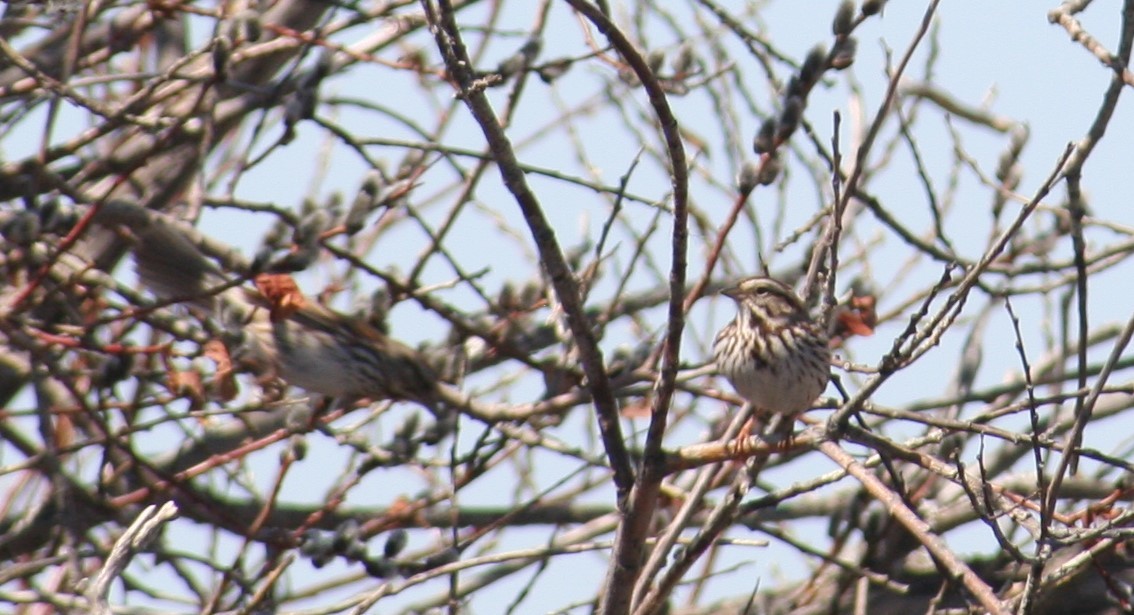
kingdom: Animalia
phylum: Chordata
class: Aves
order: Passeriformes
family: Passerellidae
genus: Melospiza
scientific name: Melospiza melodia
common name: Song sparrow
